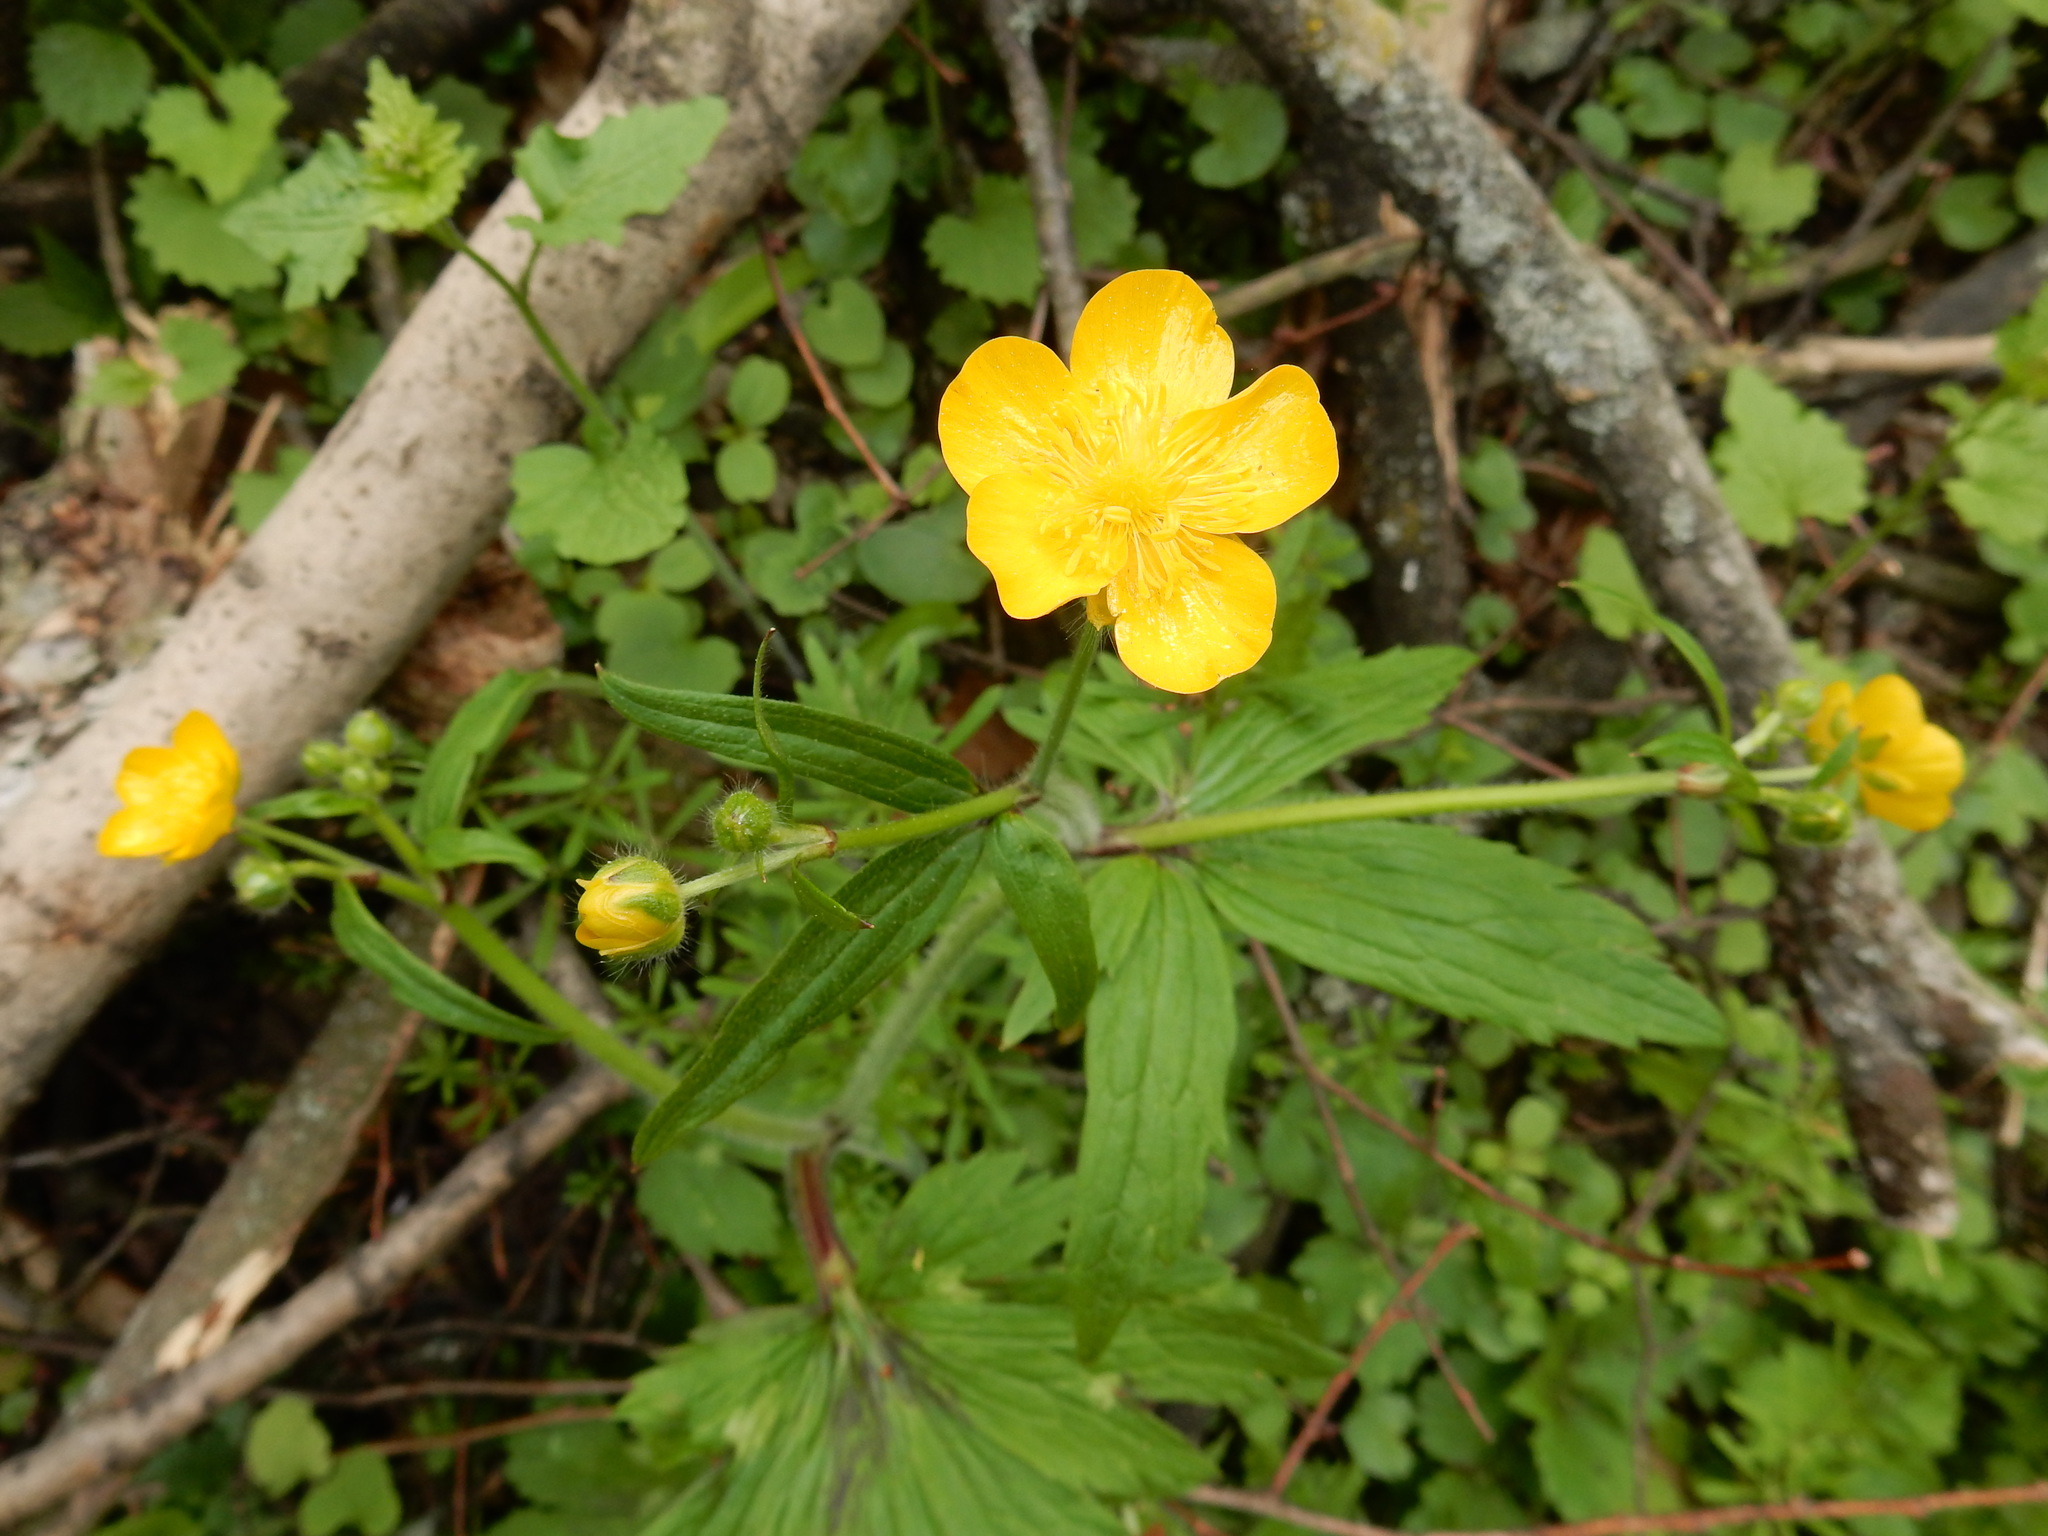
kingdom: Plantae
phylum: Tracheophyta
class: Magnoliopsida
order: Ranunculales
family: Ranunculaceae
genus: Ranunculus
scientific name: Ranunculus lanuginosus
